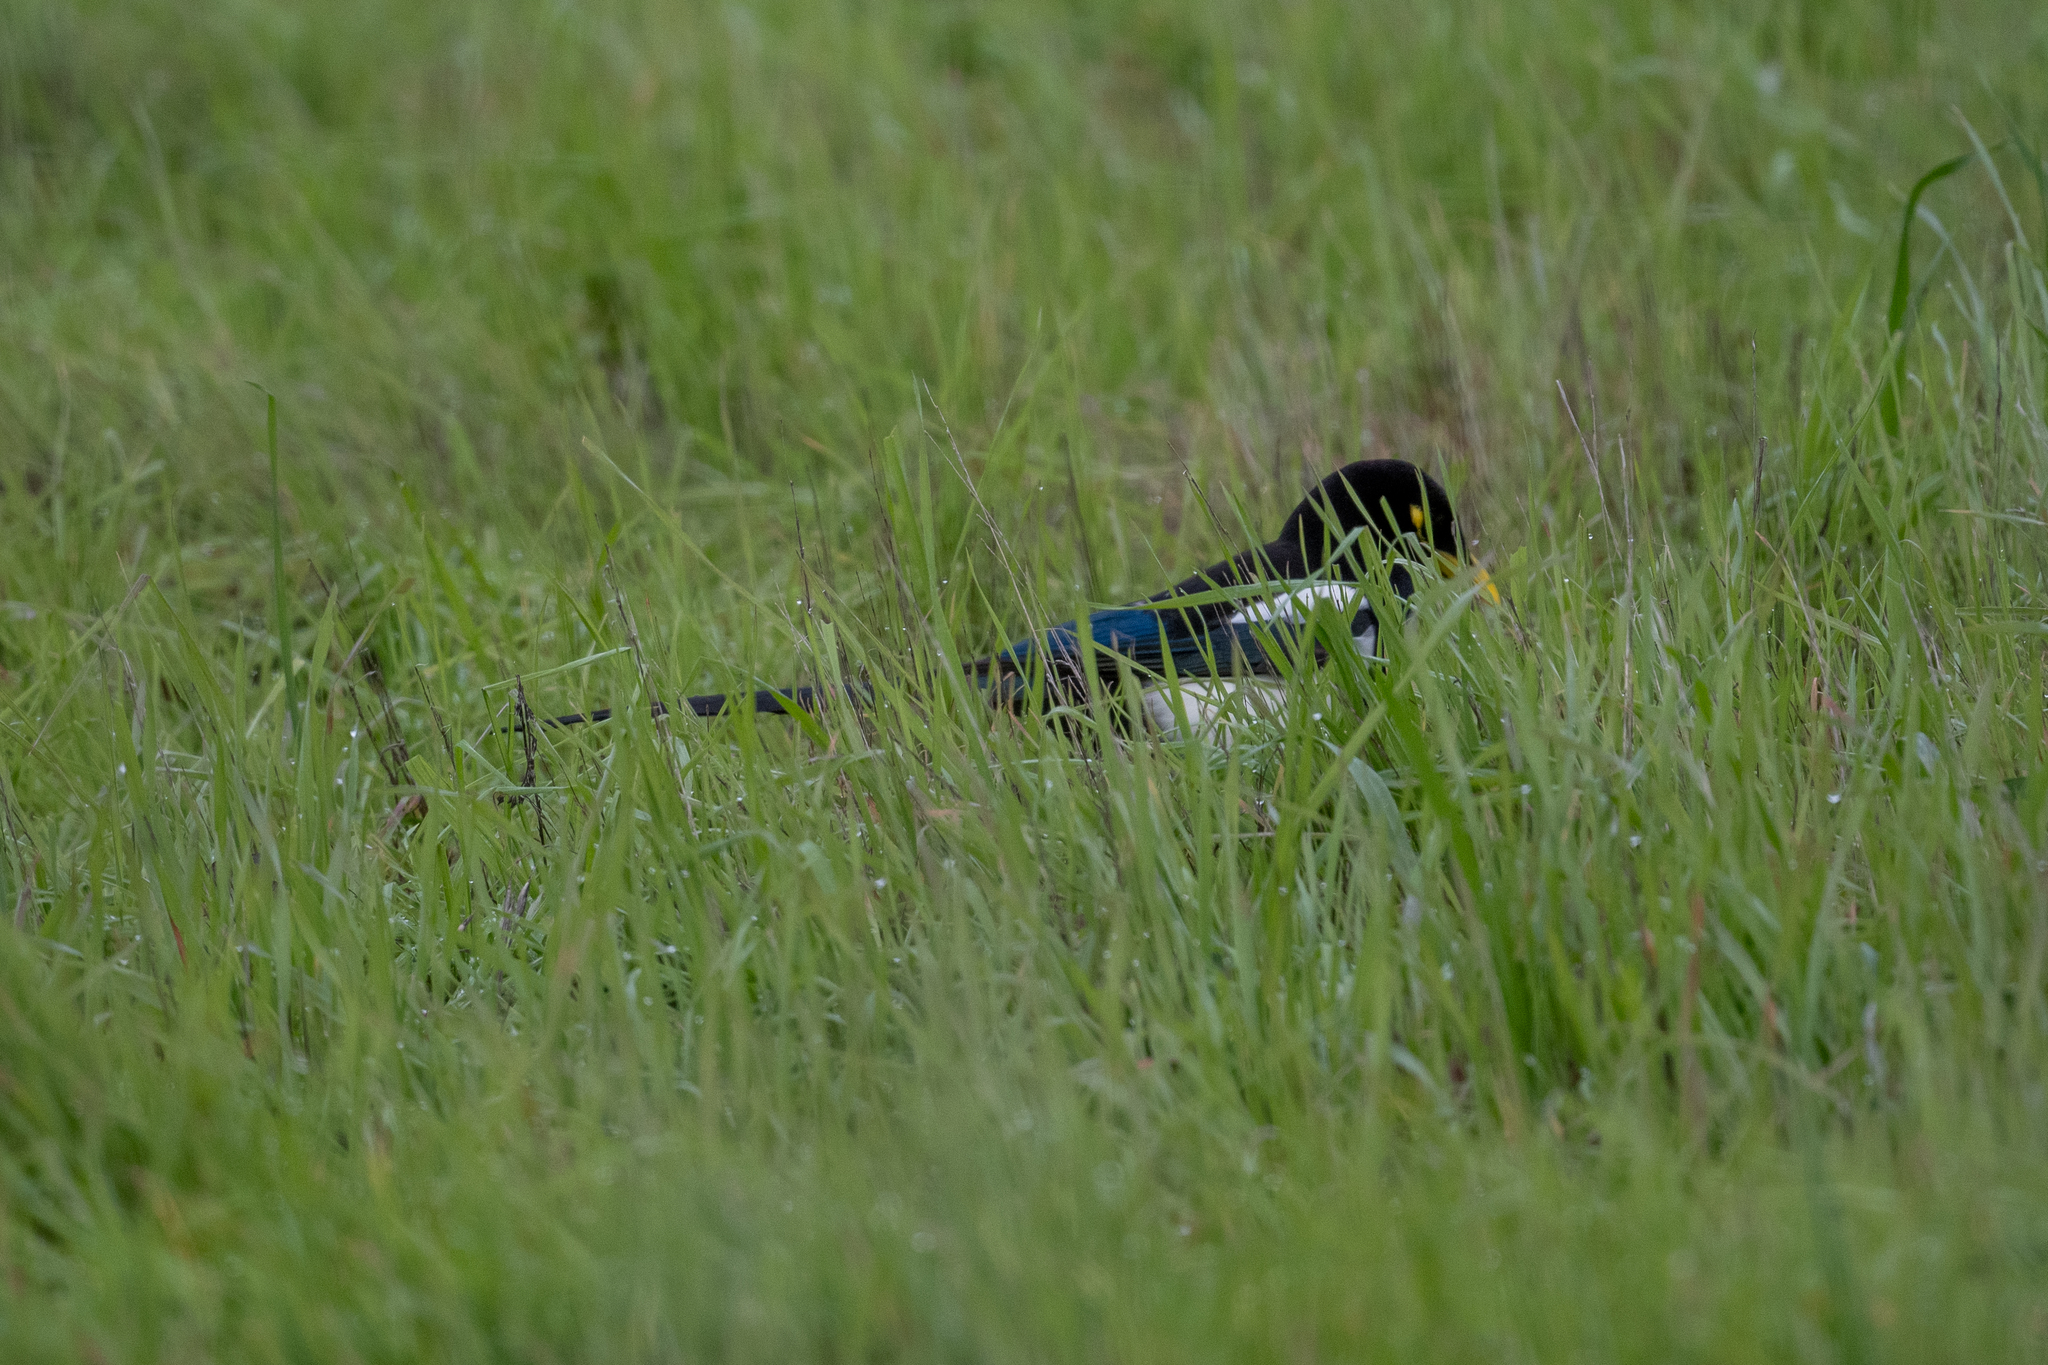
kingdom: Animalia
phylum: Chordata
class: Aves
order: Passeriformes
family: Corvidae
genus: Pica
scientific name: Pica nuttalli
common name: Yellow-billed magpie
